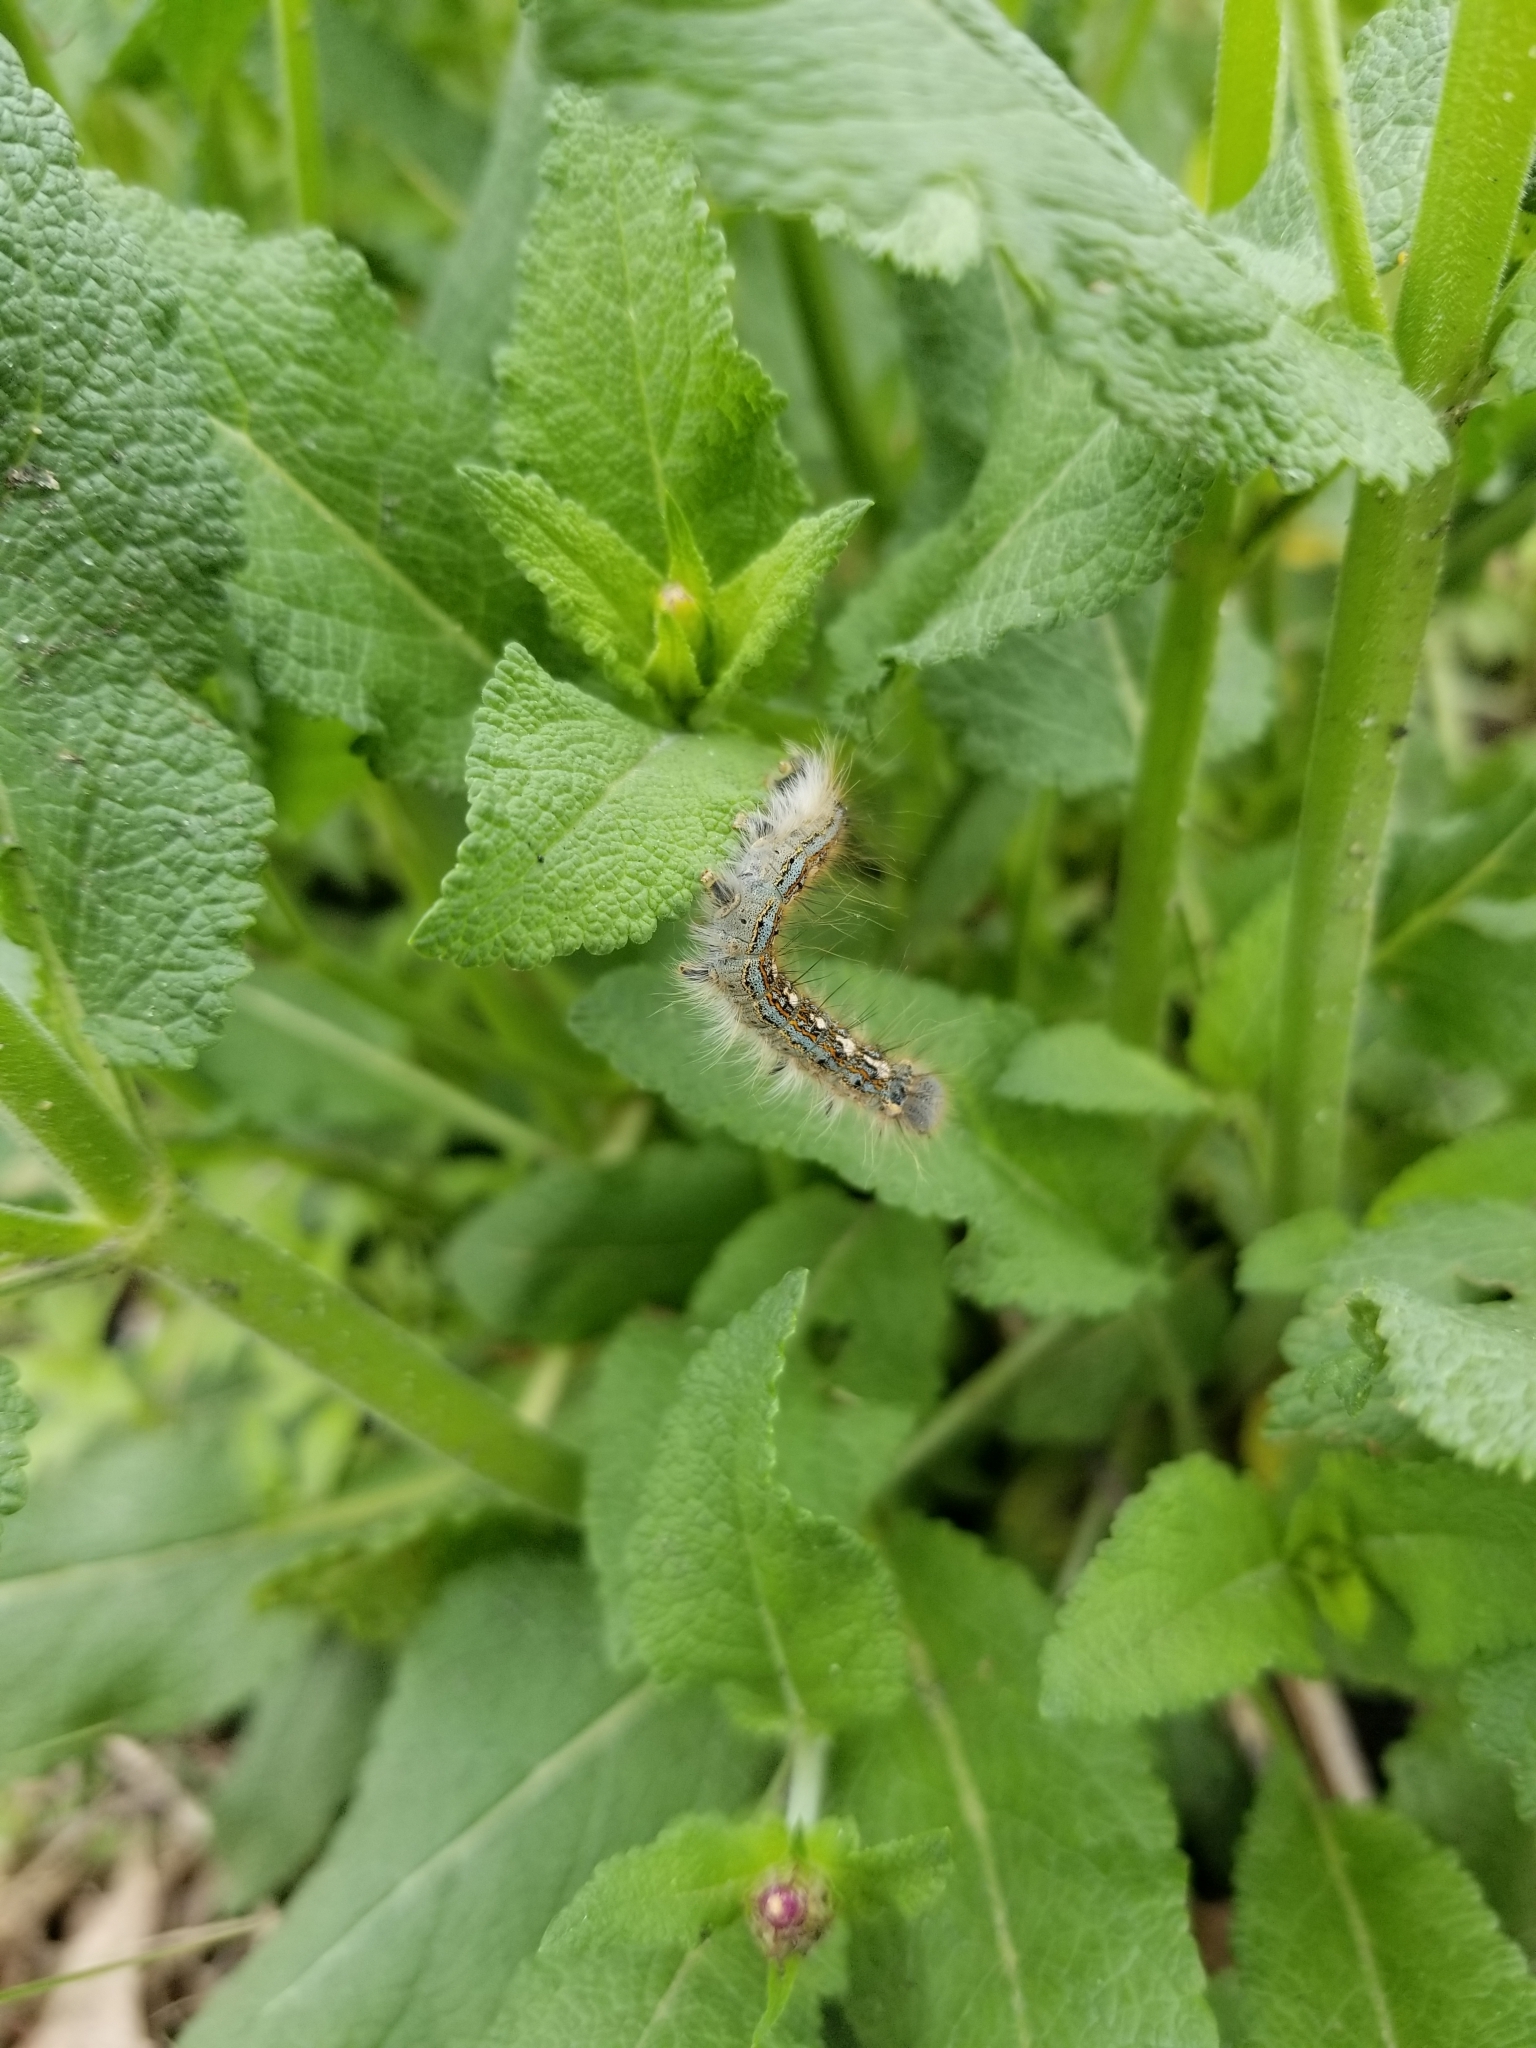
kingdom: Animalia
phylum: Arthropoda
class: Insecta
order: Lepidoptera
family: Lasiocampidae
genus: Malacosoma
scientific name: Malacosoma disstria
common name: Forest tent caterpillar
